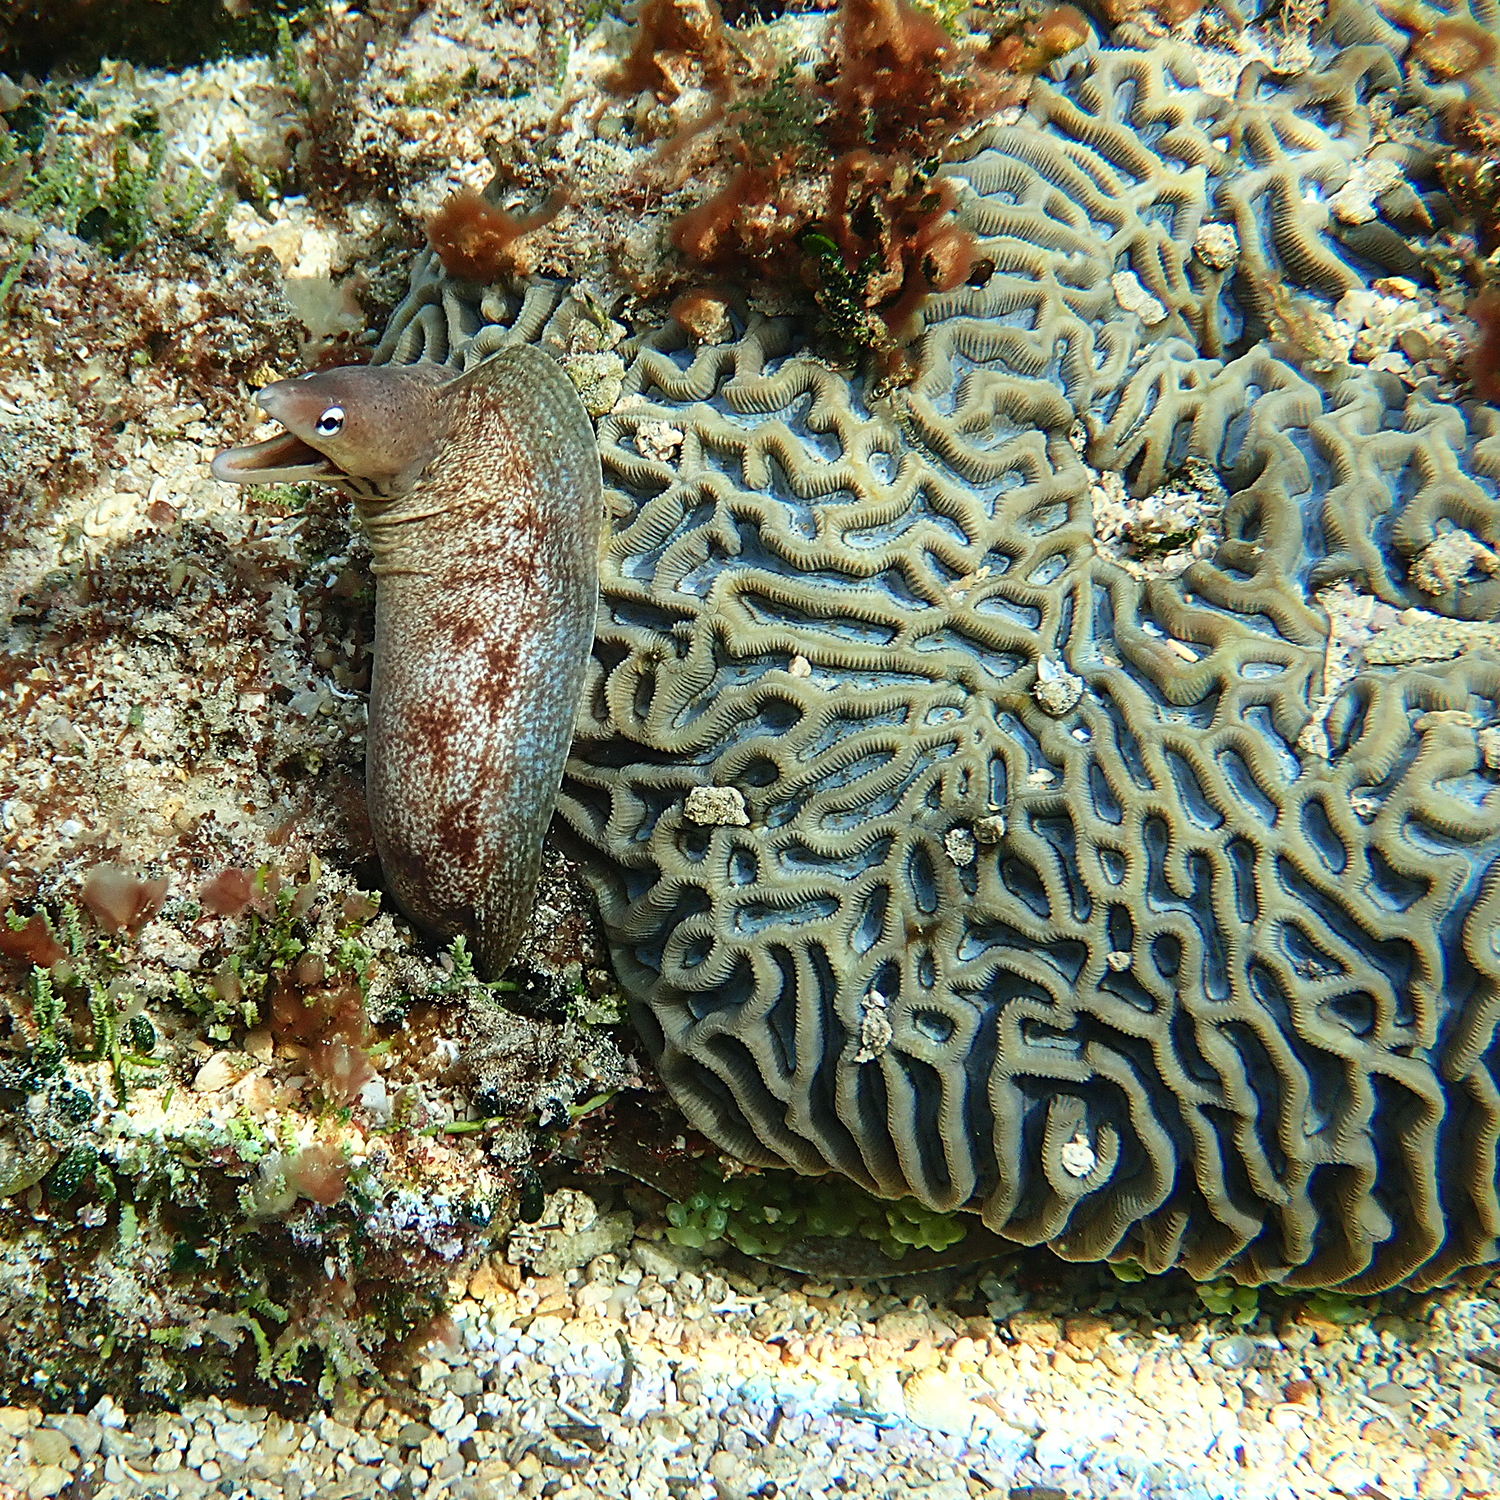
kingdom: Animalia
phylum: Chordata
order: Anguilliformes
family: Muraenidae
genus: Gymnothorax
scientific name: Gymnothorax nubilus
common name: Grey moray
